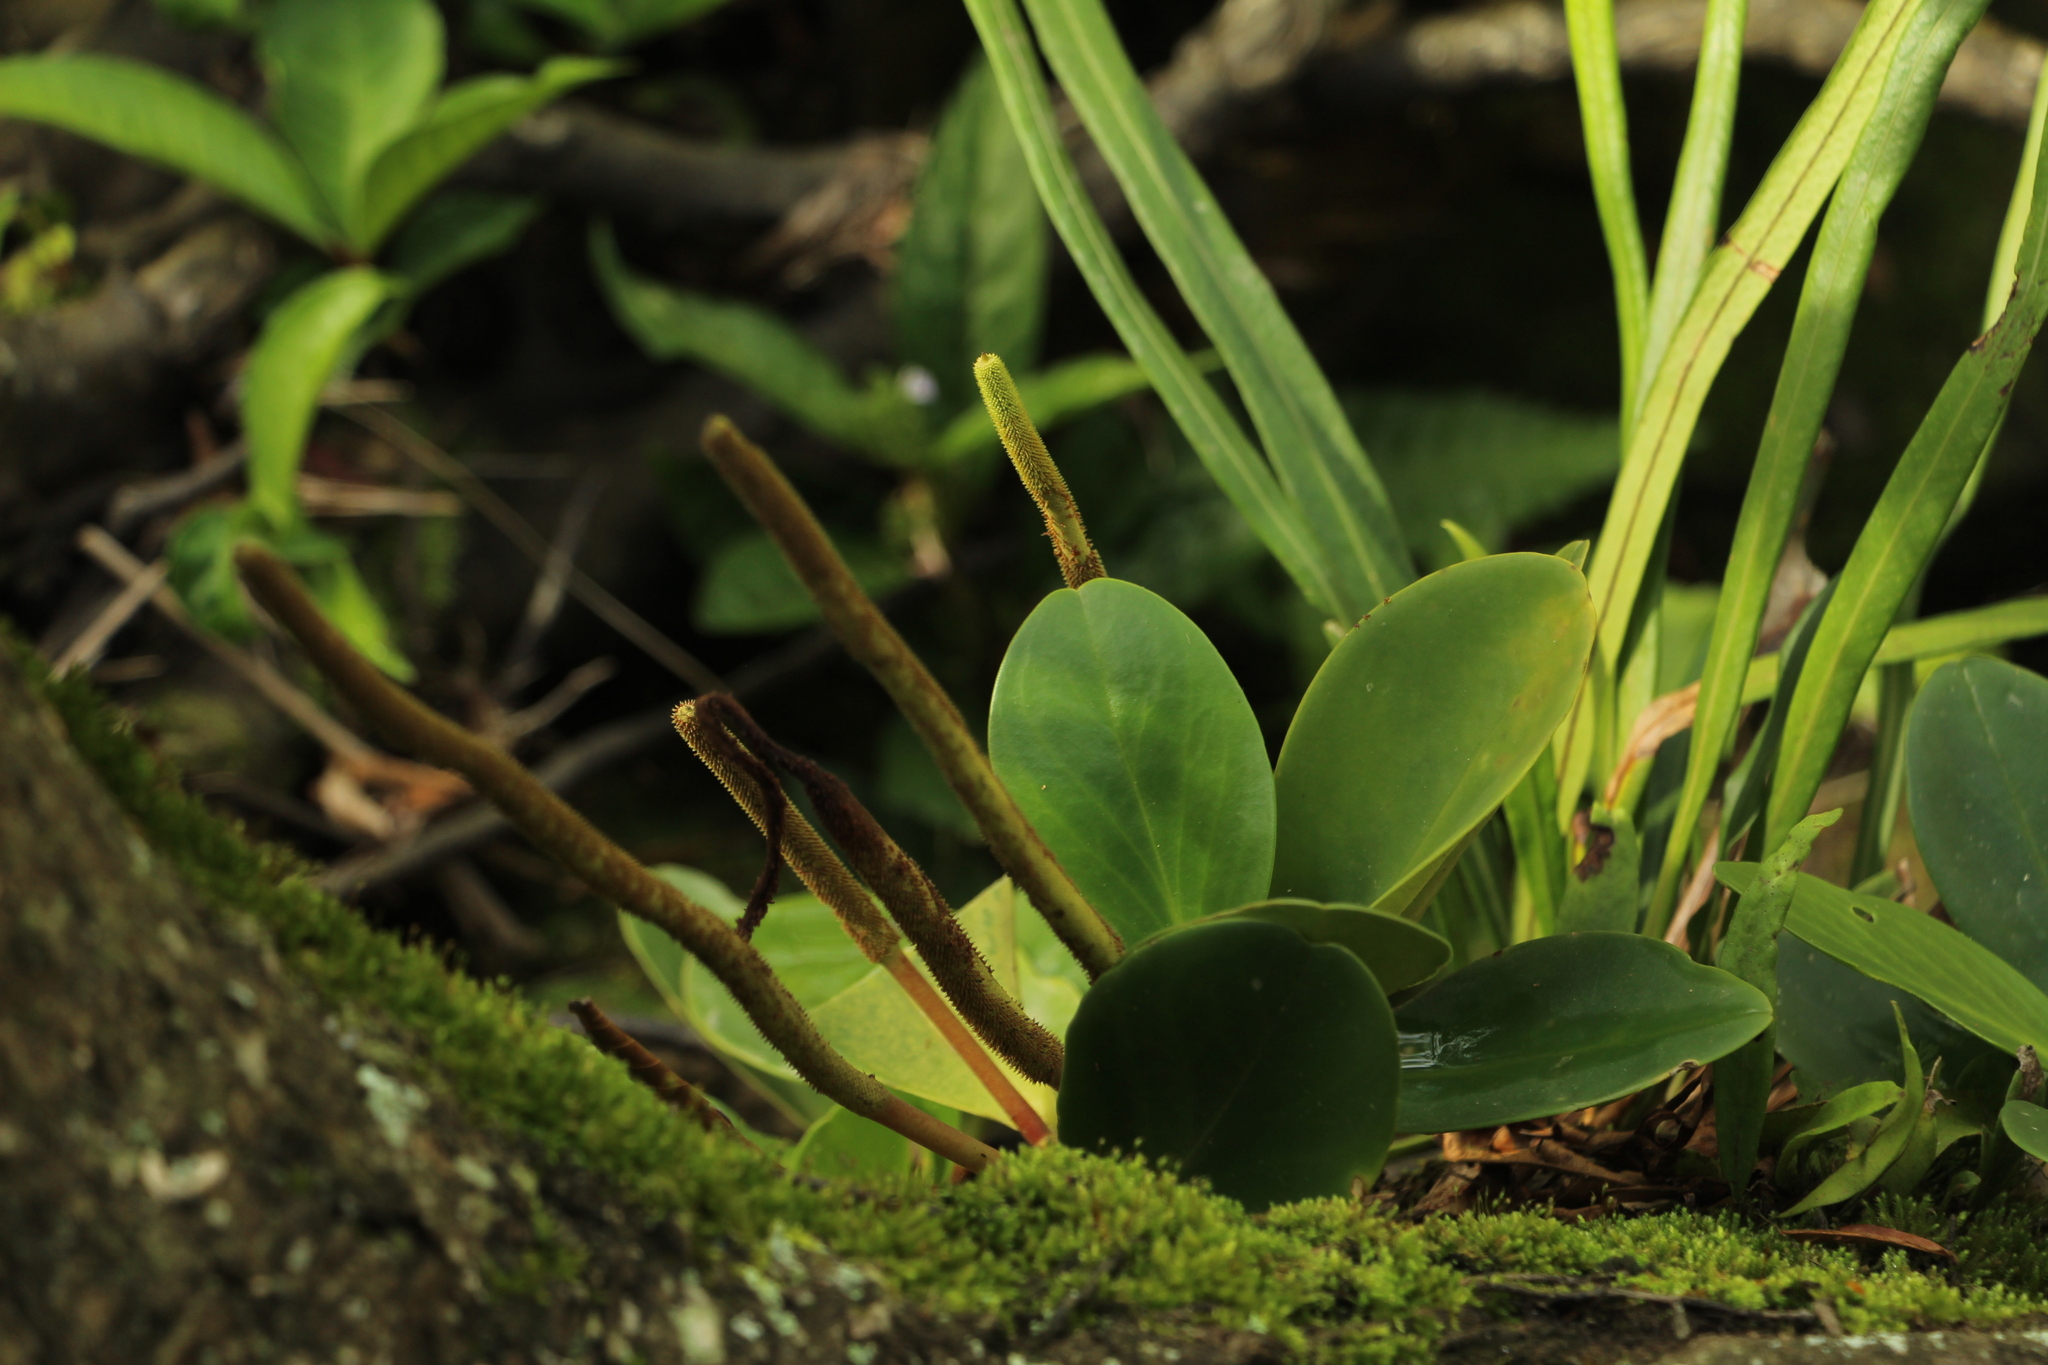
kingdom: Plantae
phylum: Tracheophyta
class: Magnoliopsida
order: Piperales
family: Piperaceae
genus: Peperomia
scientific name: Peperomia obtusifolia
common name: Baby rubberplant
